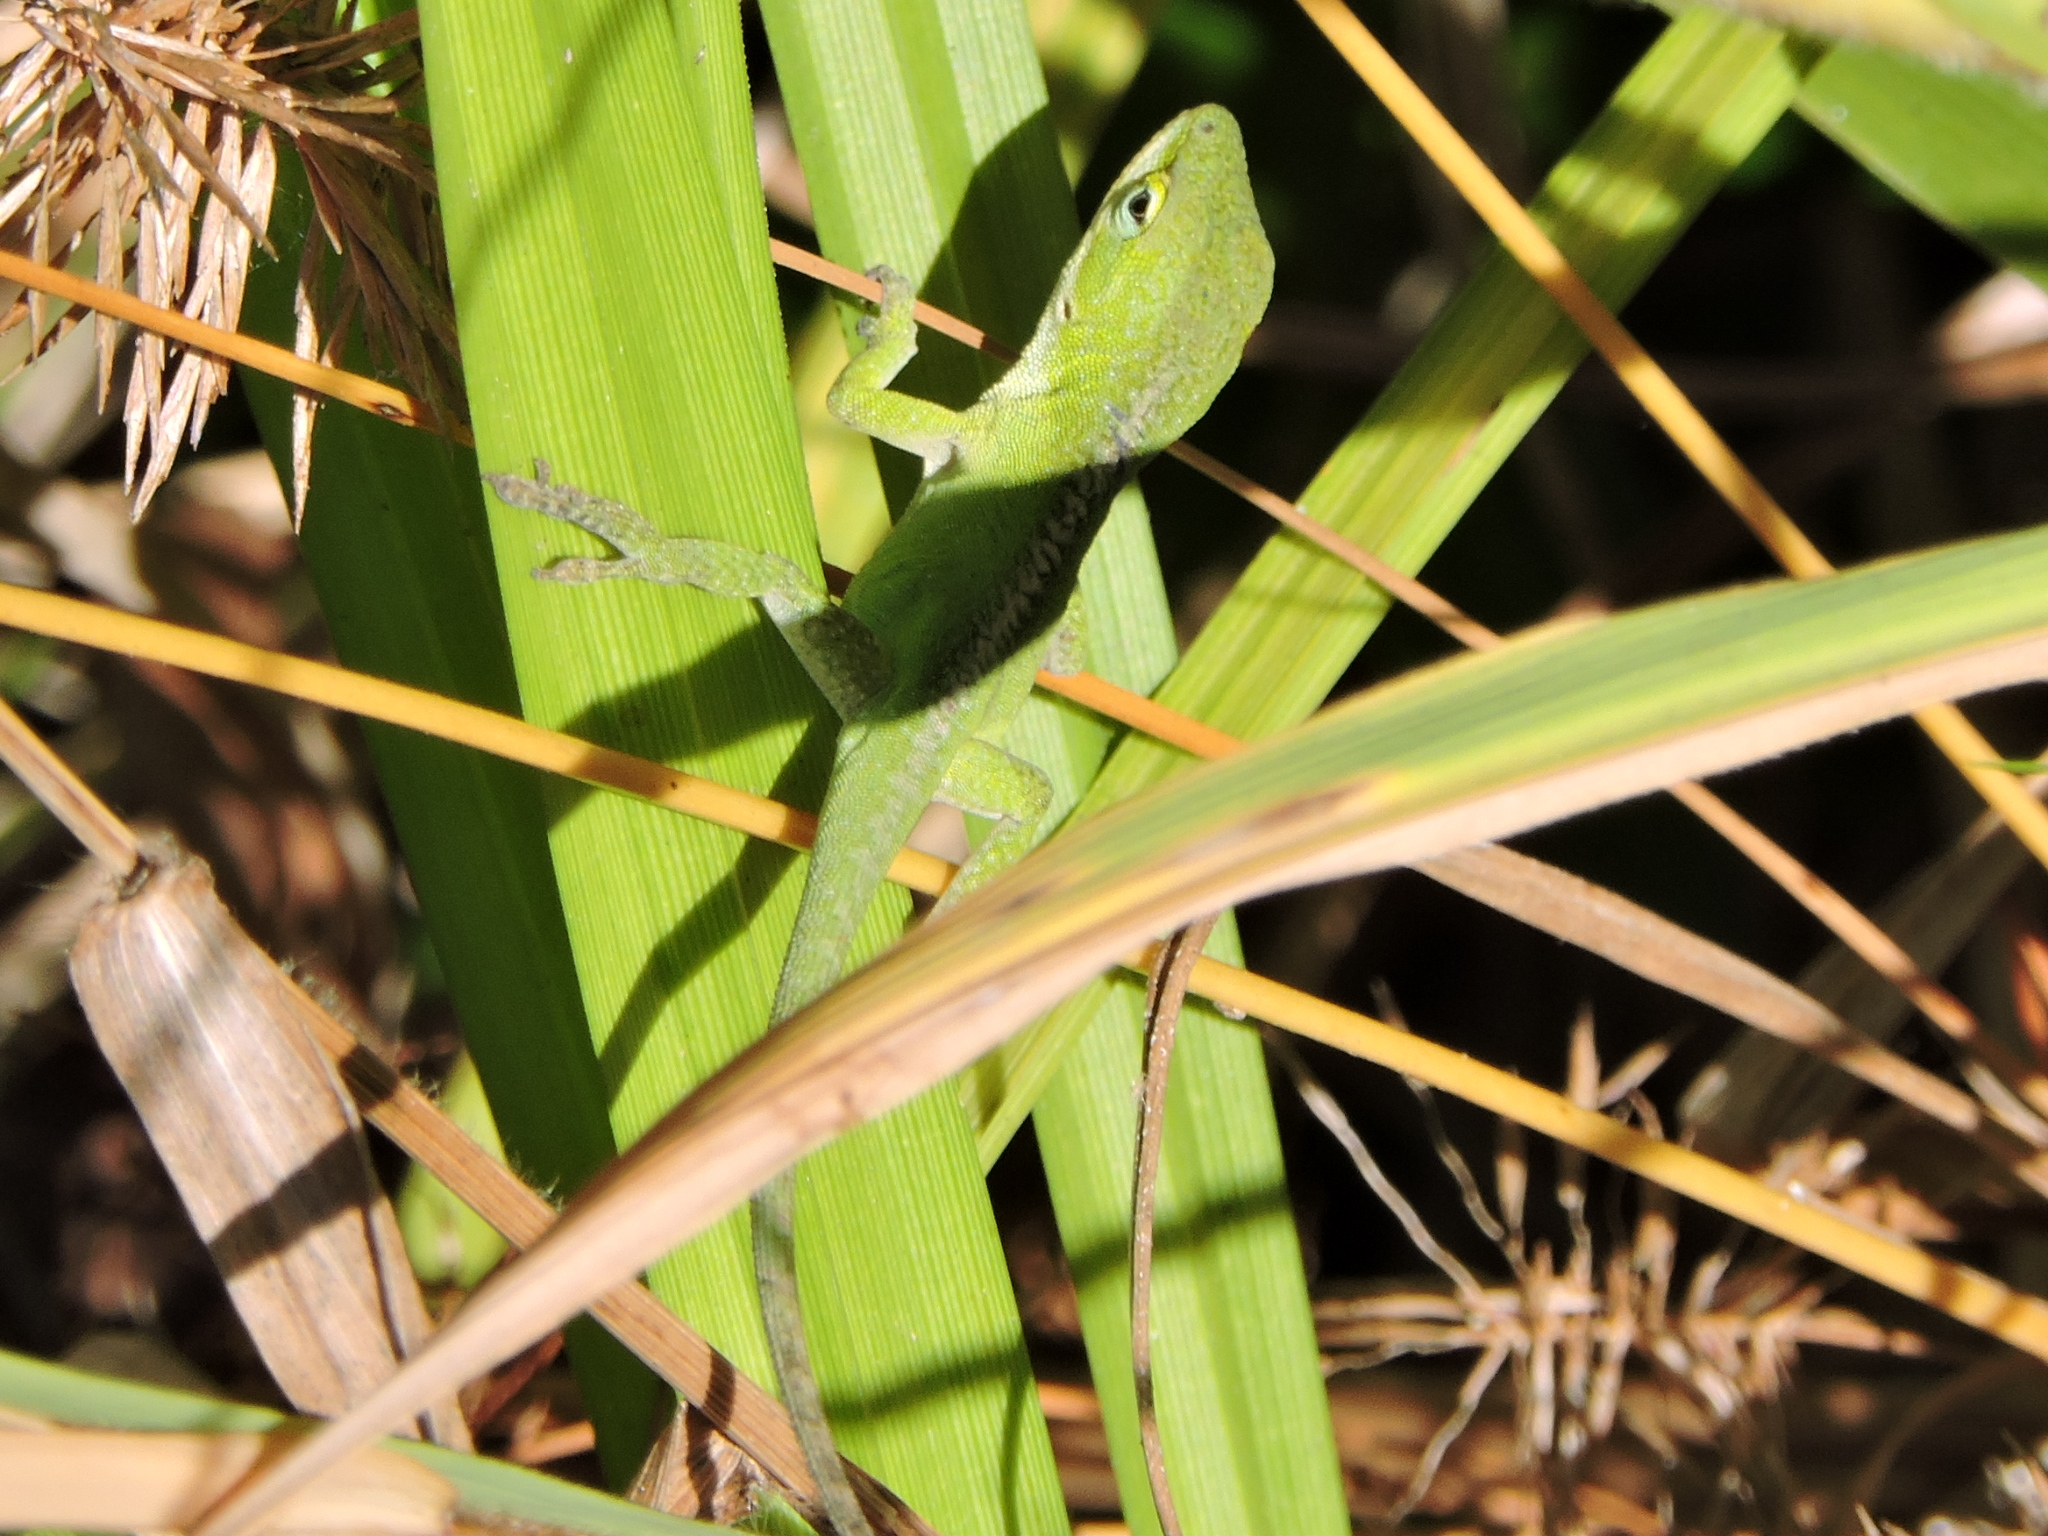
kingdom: Animalia
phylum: Chordata
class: Squamata
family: Dactyloidae
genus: Anolis
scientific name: Anolis carolinensis
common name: Green anole
